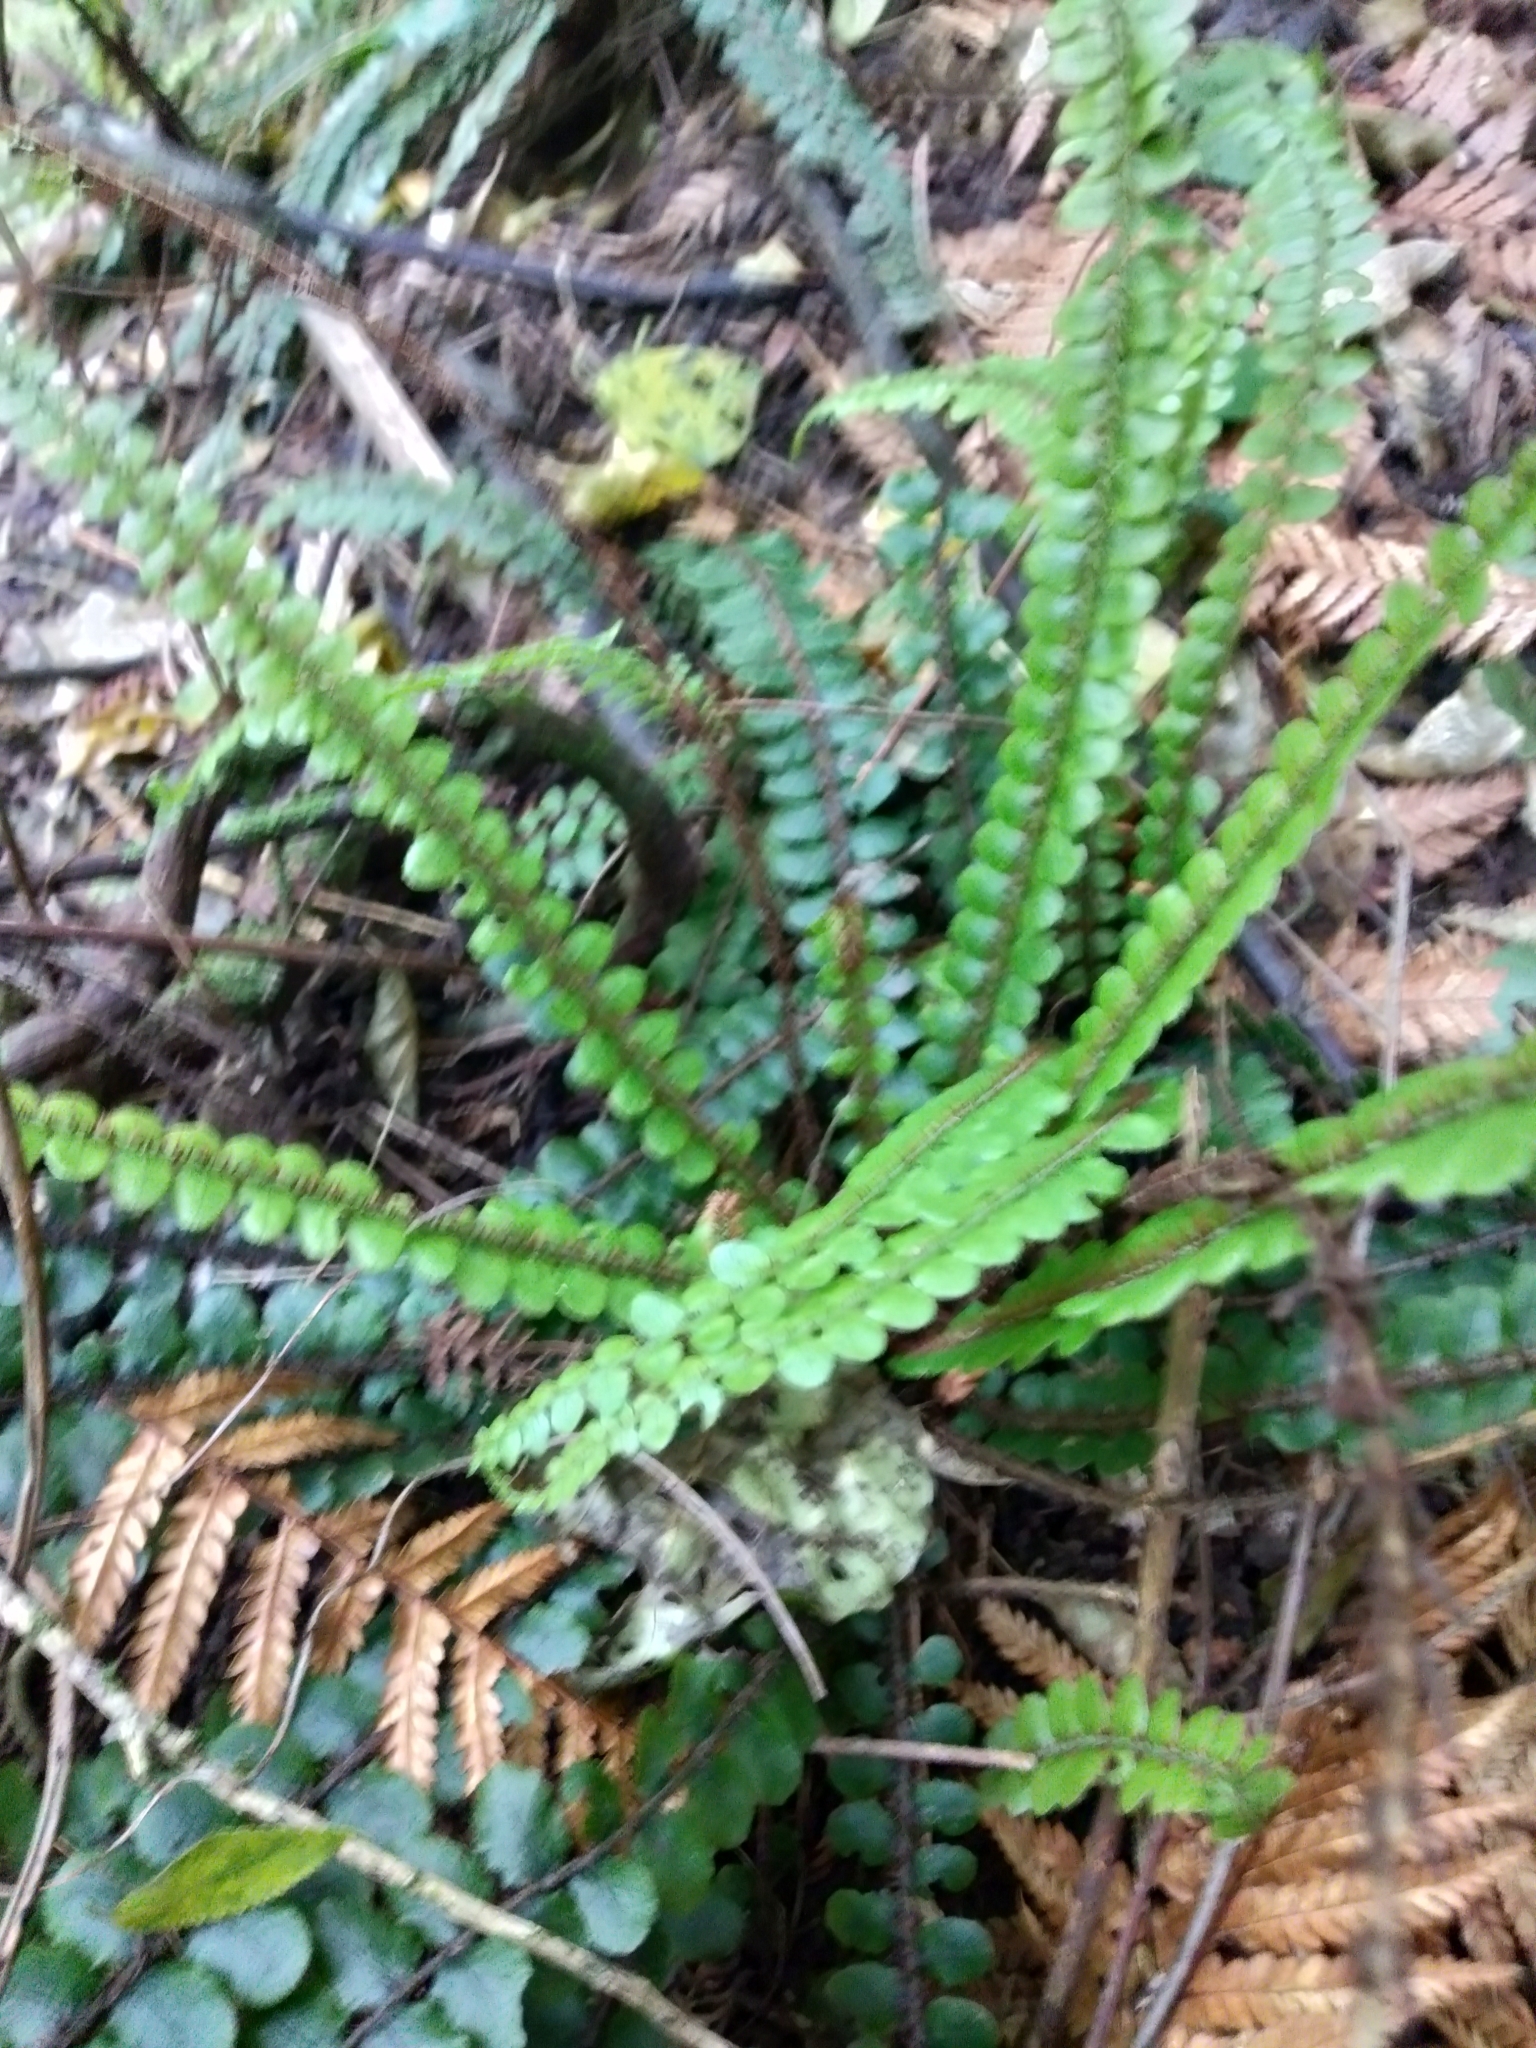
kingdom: Plantae
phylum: Tracheophyta
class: Polypodiopsida
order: Polypodiales
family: Blechnaceae
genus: Cranfillia
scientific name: Cranfillia fluviatilis
